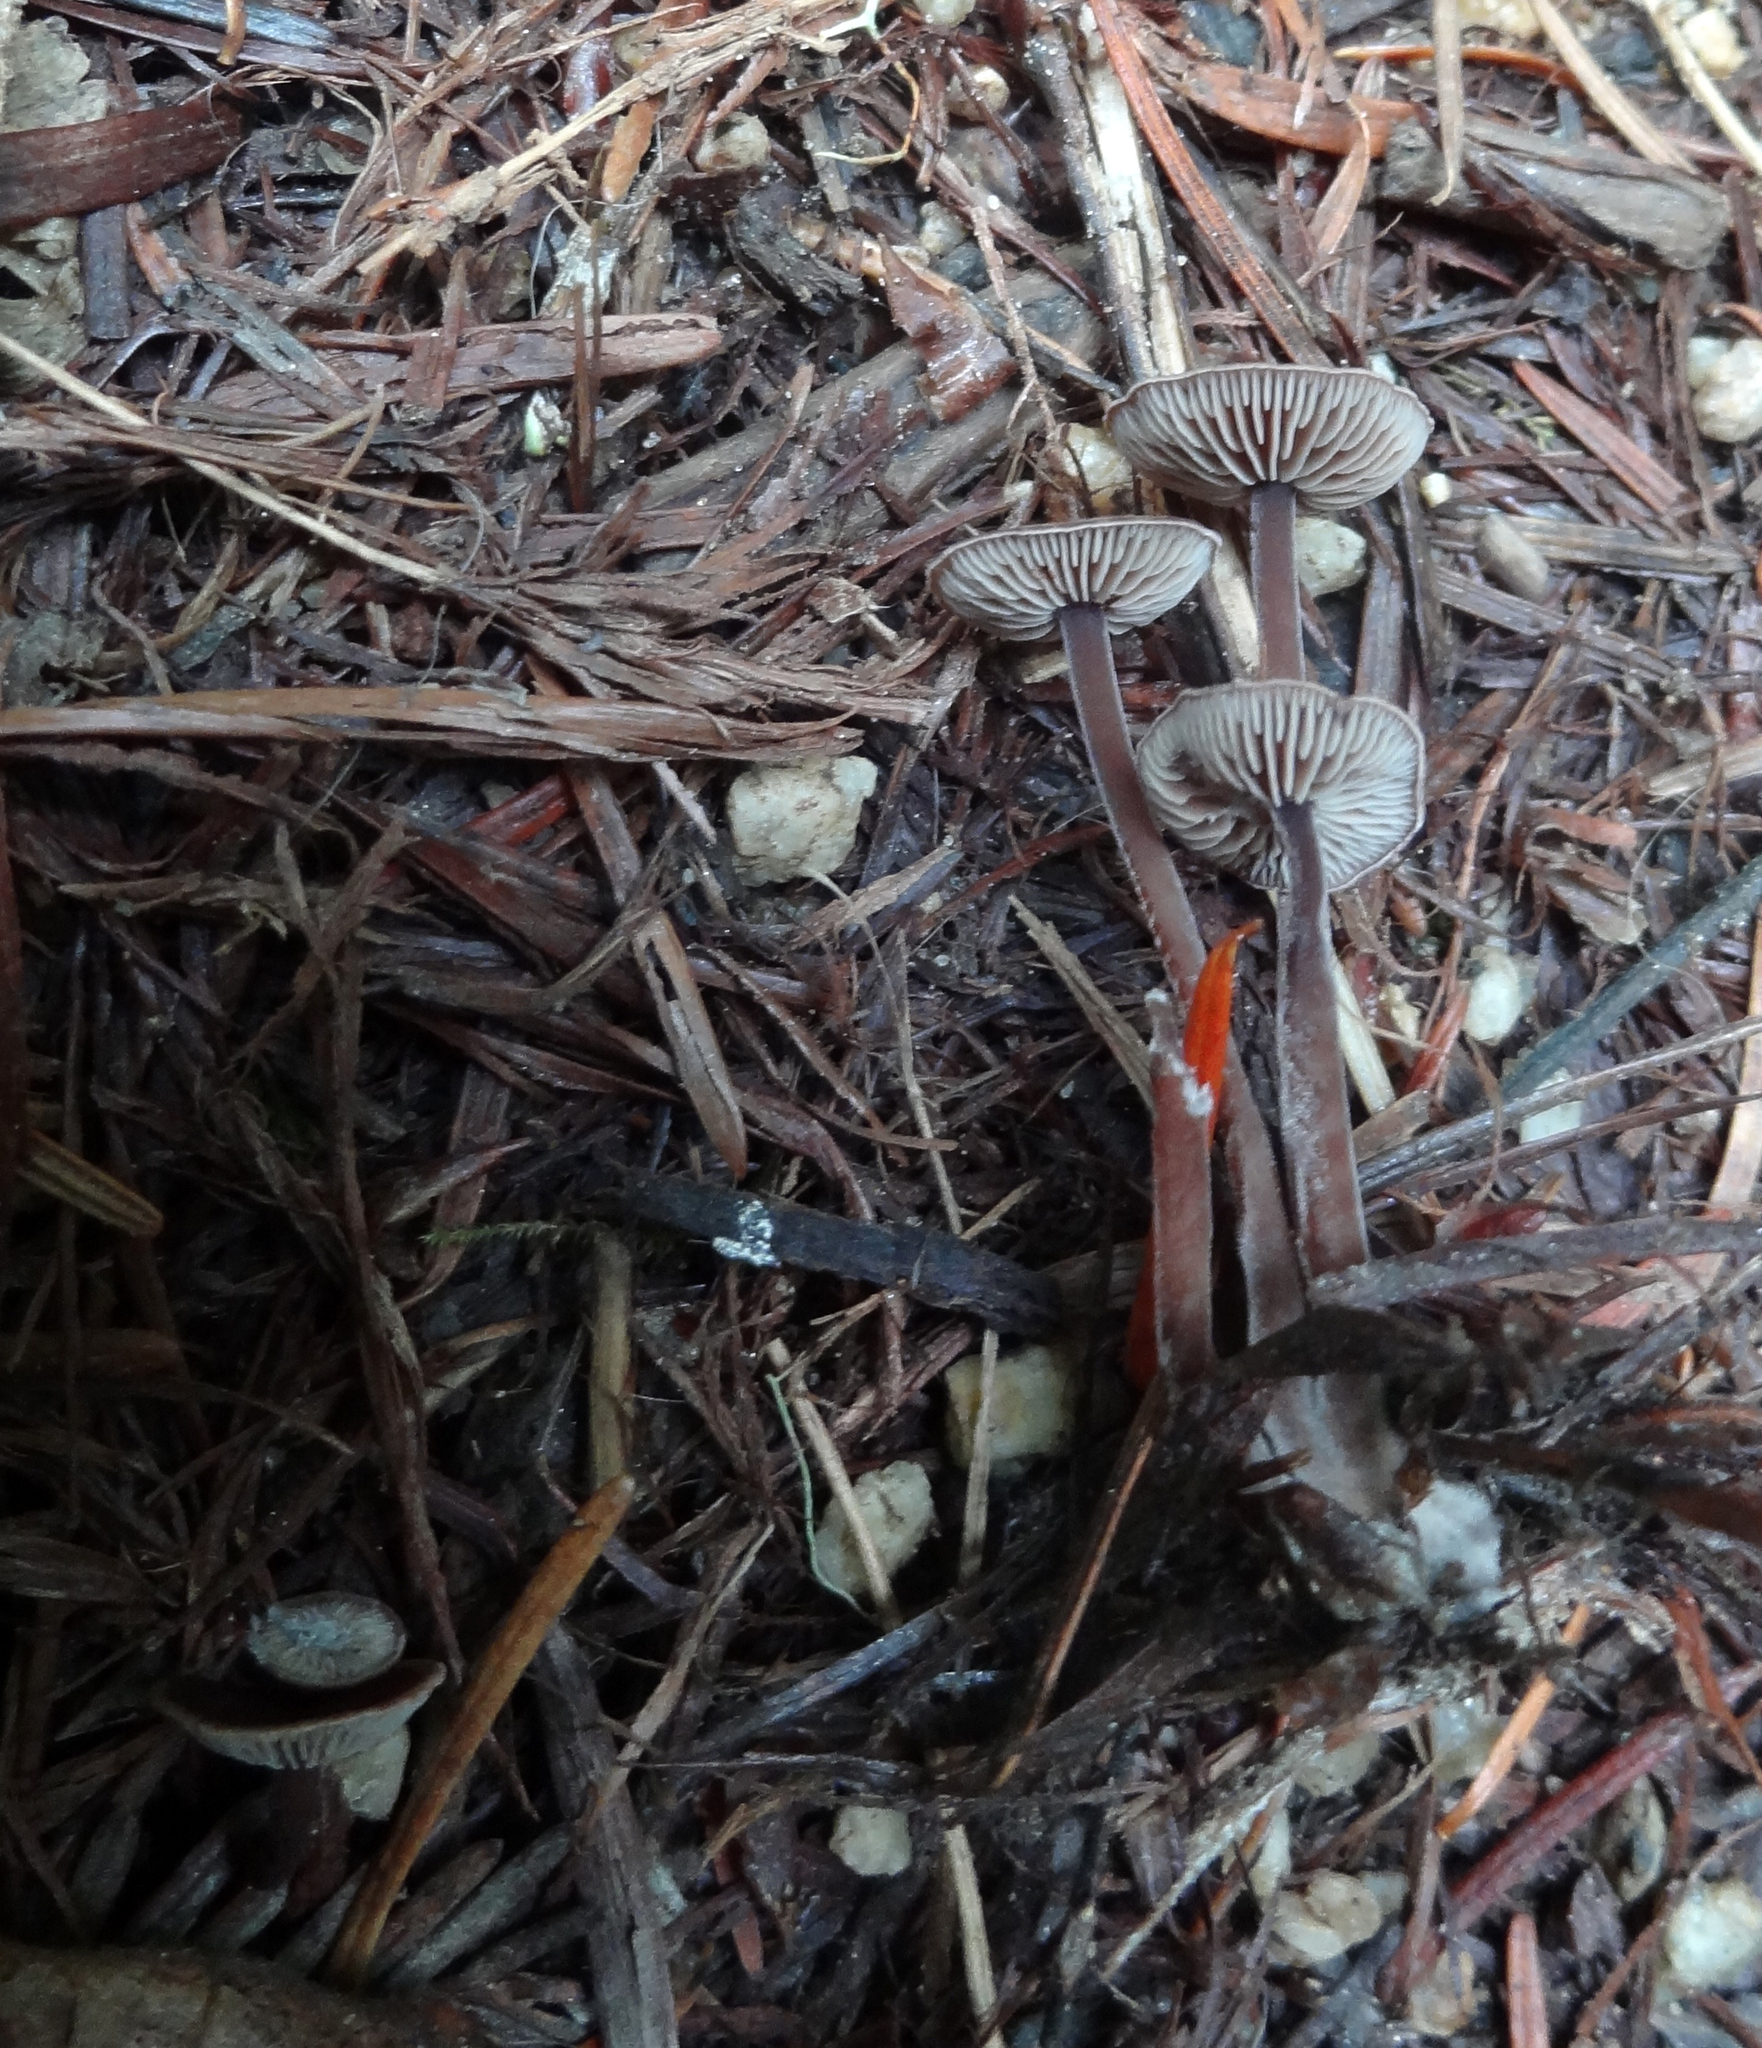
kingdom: Fungi
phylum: Basidiomycota
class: Agaricomycetes
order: Agaricales
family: Omphalotaceae
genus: Collybiopsis
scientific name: Collybiopsis villosipes
